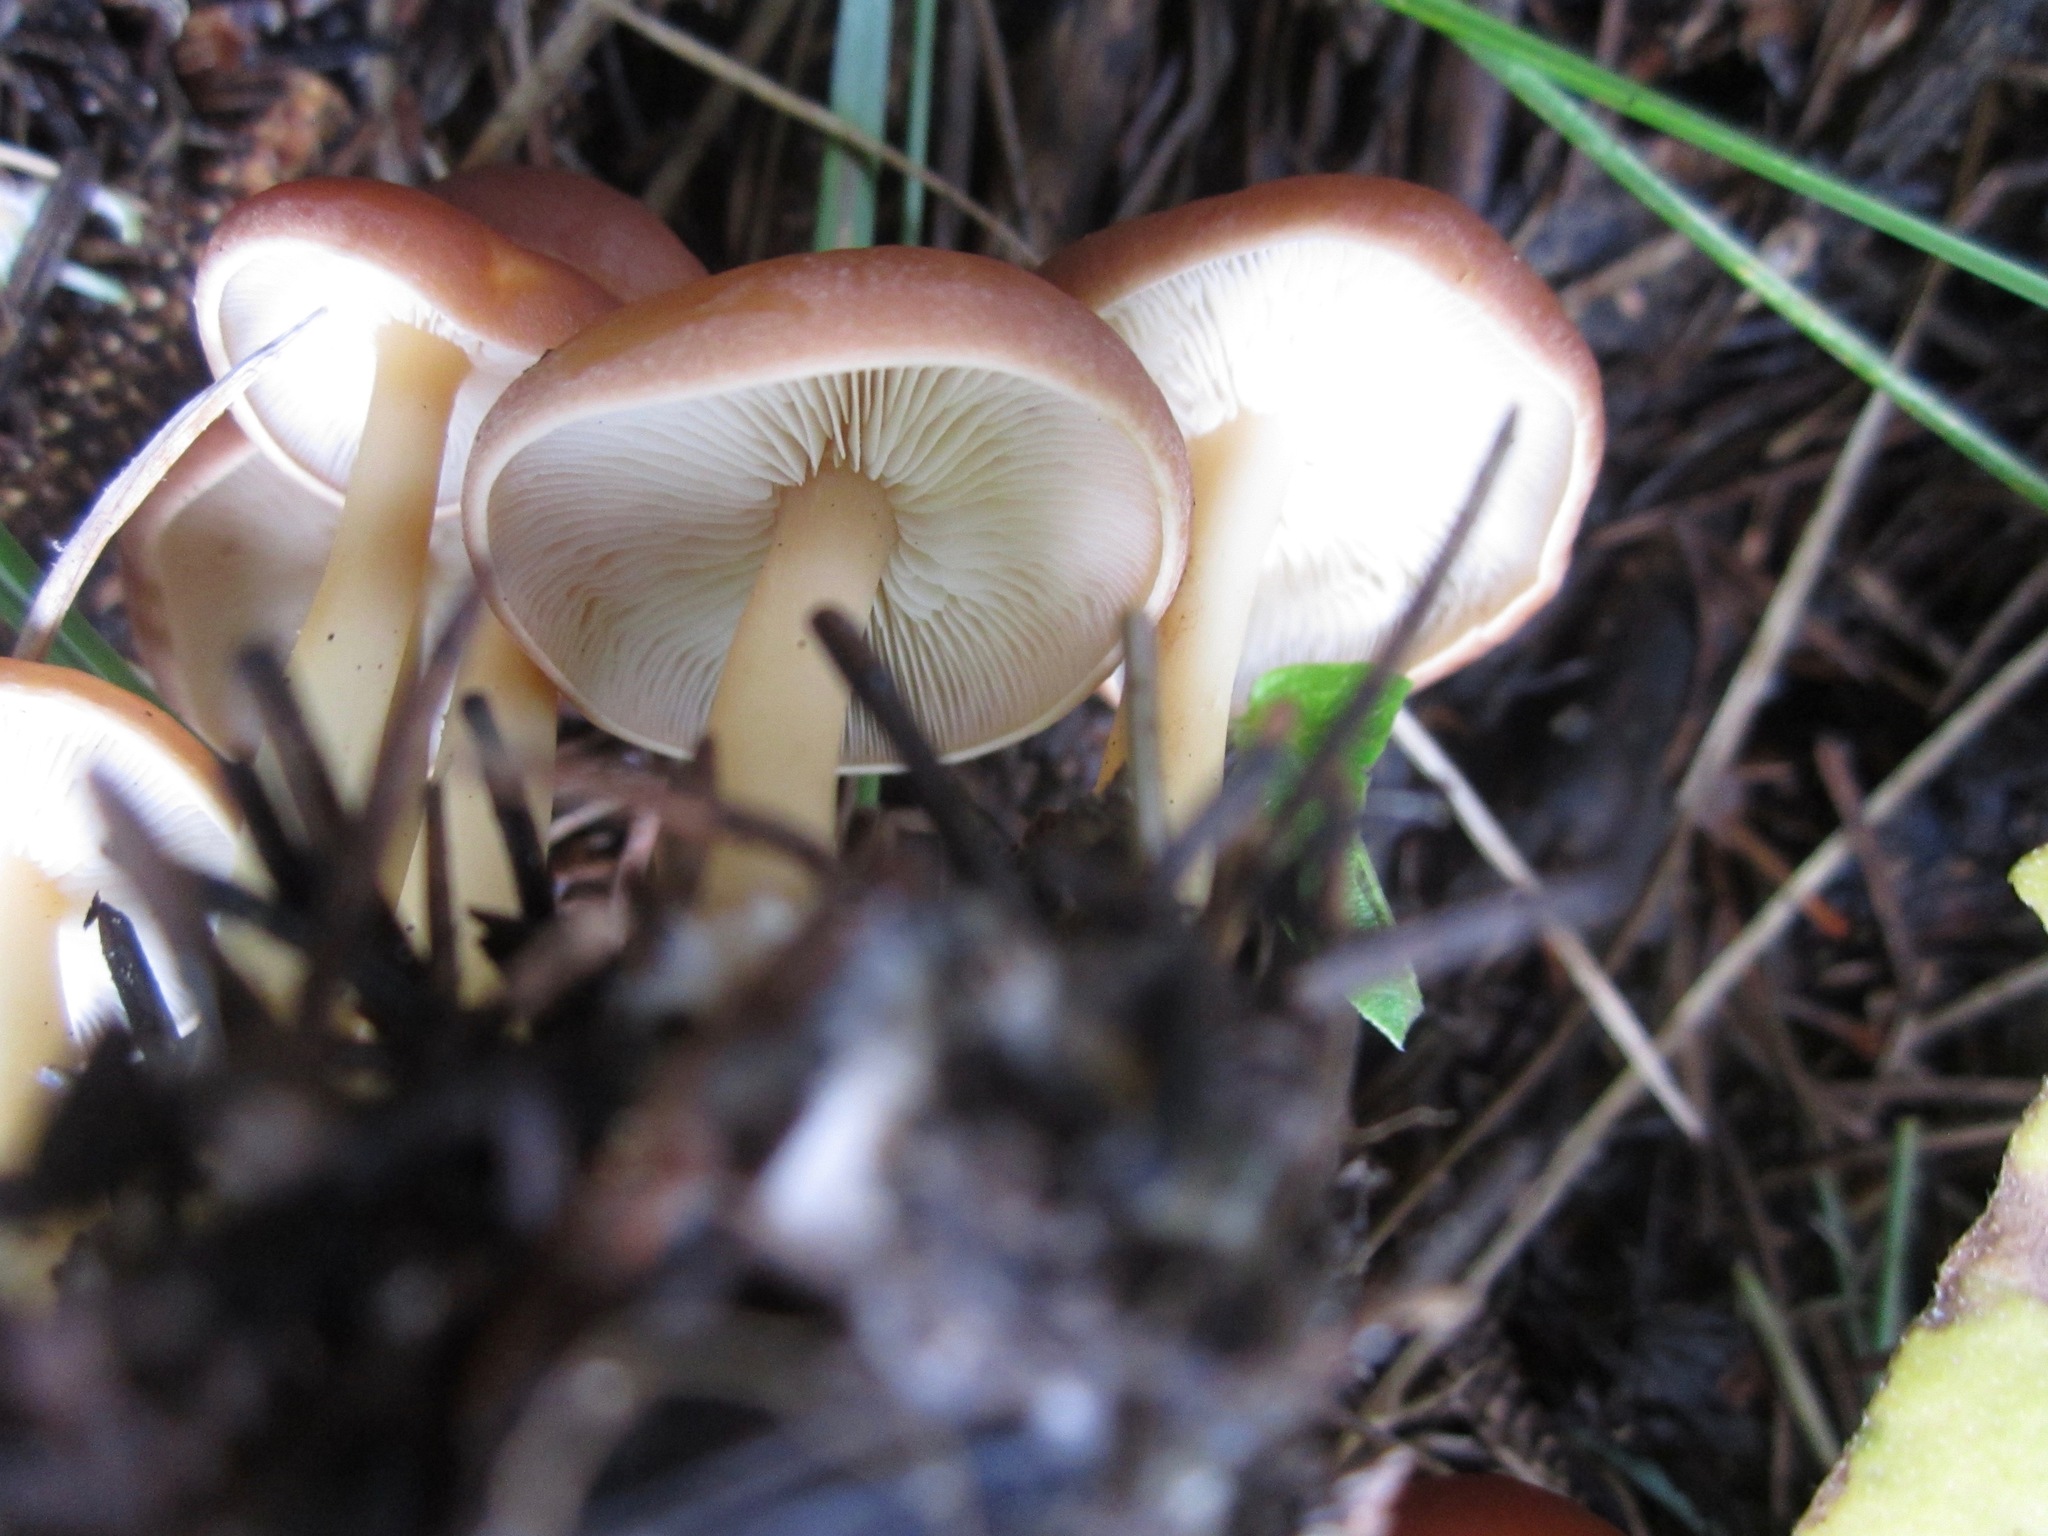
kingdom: Fungi
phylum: Basidiomycota
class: Agaricomycetes
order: Agaricales
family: Omphalotaceae
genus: Gymnopus
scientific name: Gymnopus dryophilus
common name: Penny top
